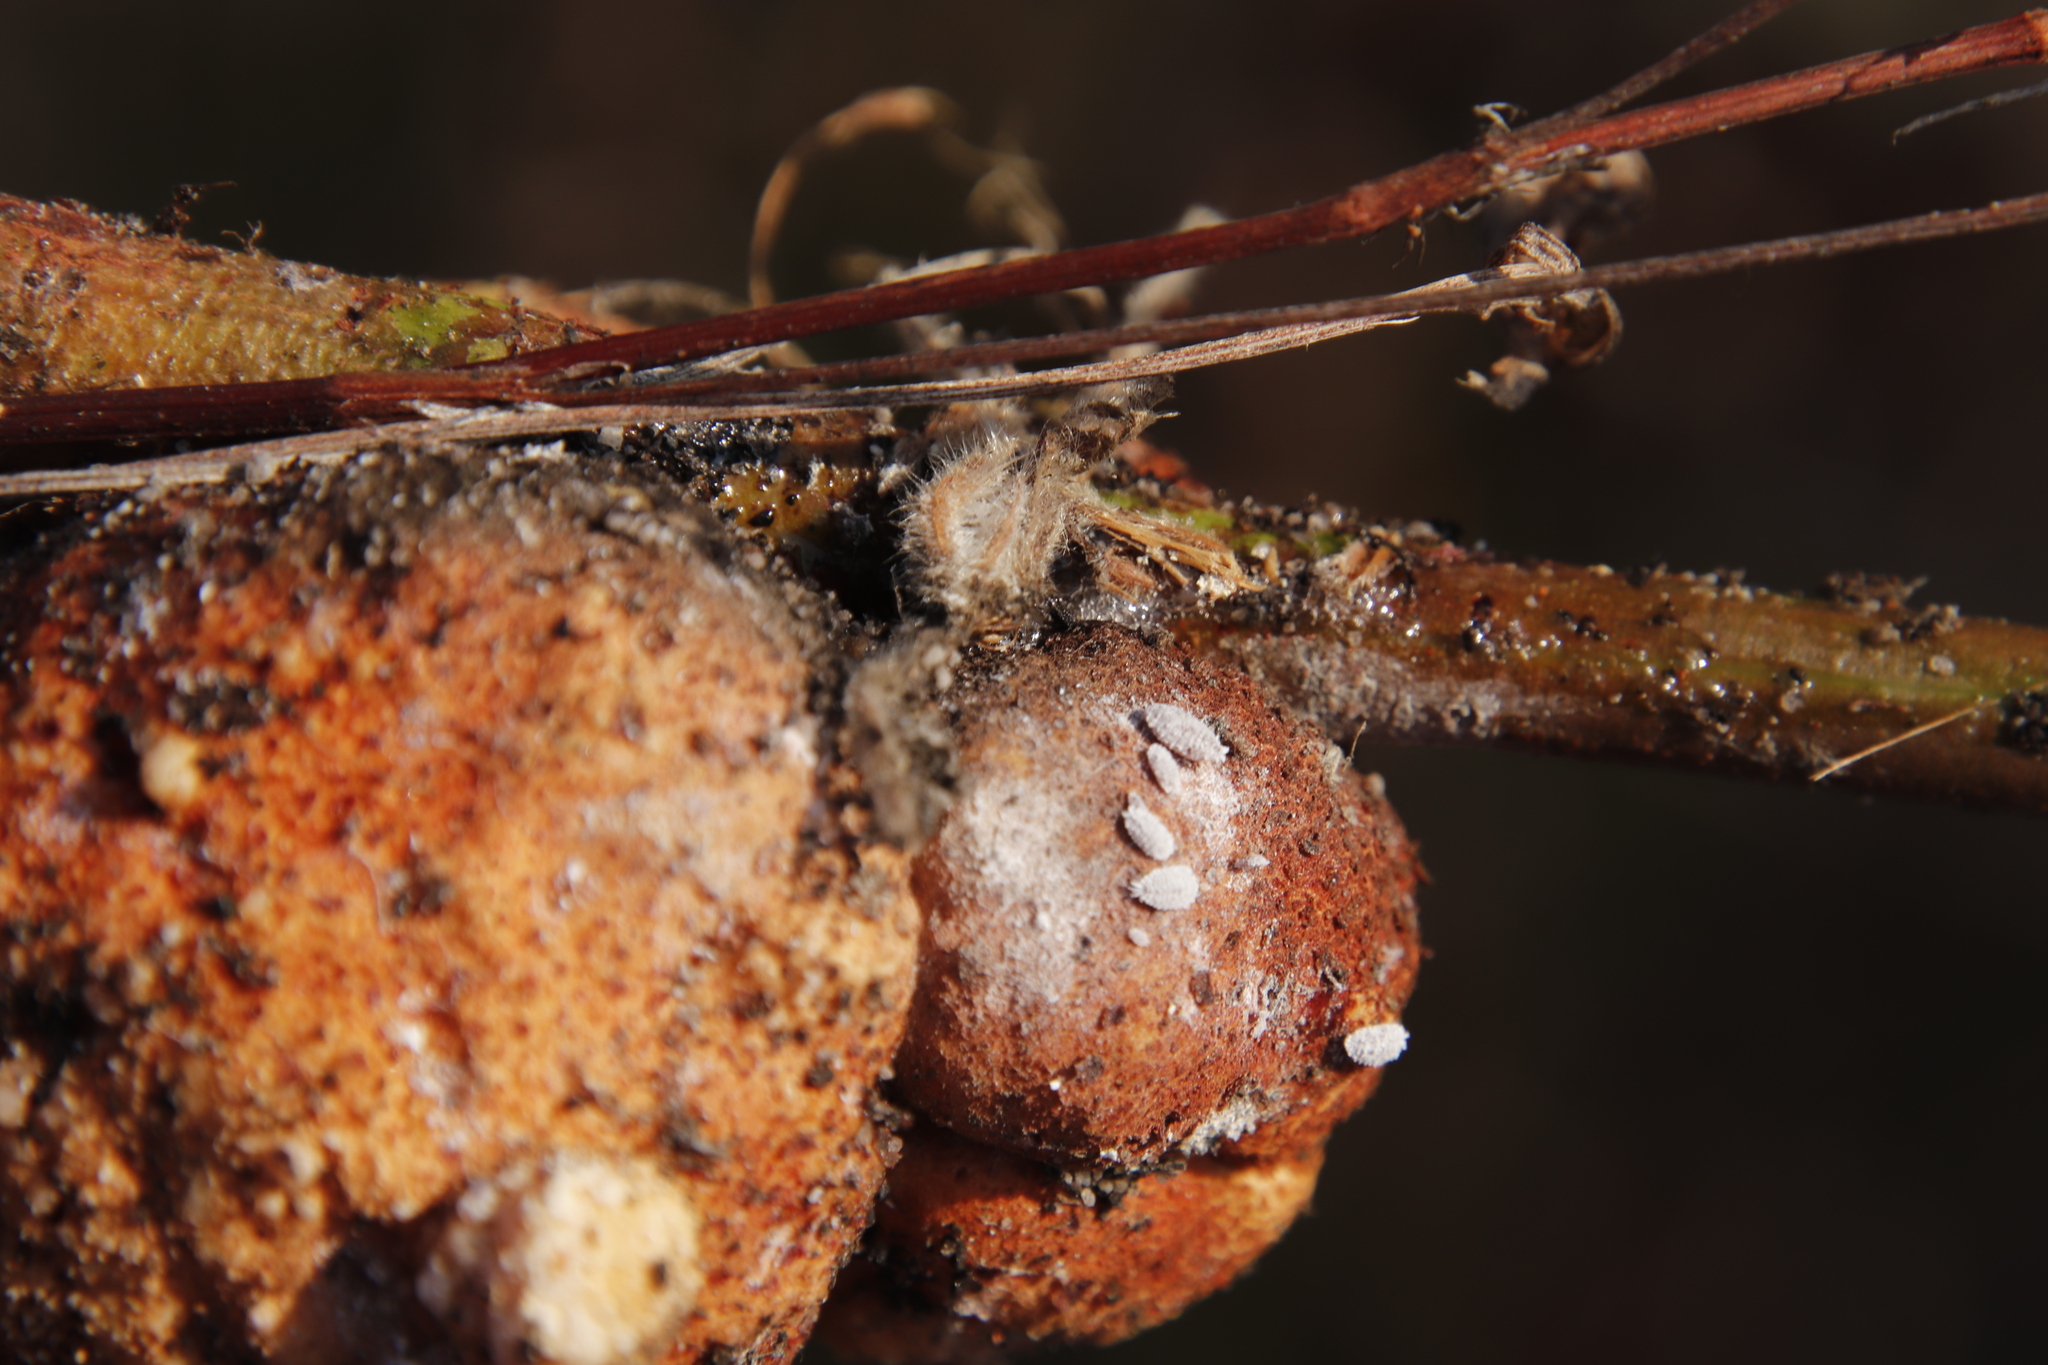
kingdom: Fungi
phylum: Basidiomycota
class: Pucciniomycetes
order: Pucciniales
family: Uromycladiaceae
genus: Uromycladium
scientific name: Uromycladium morrisii
